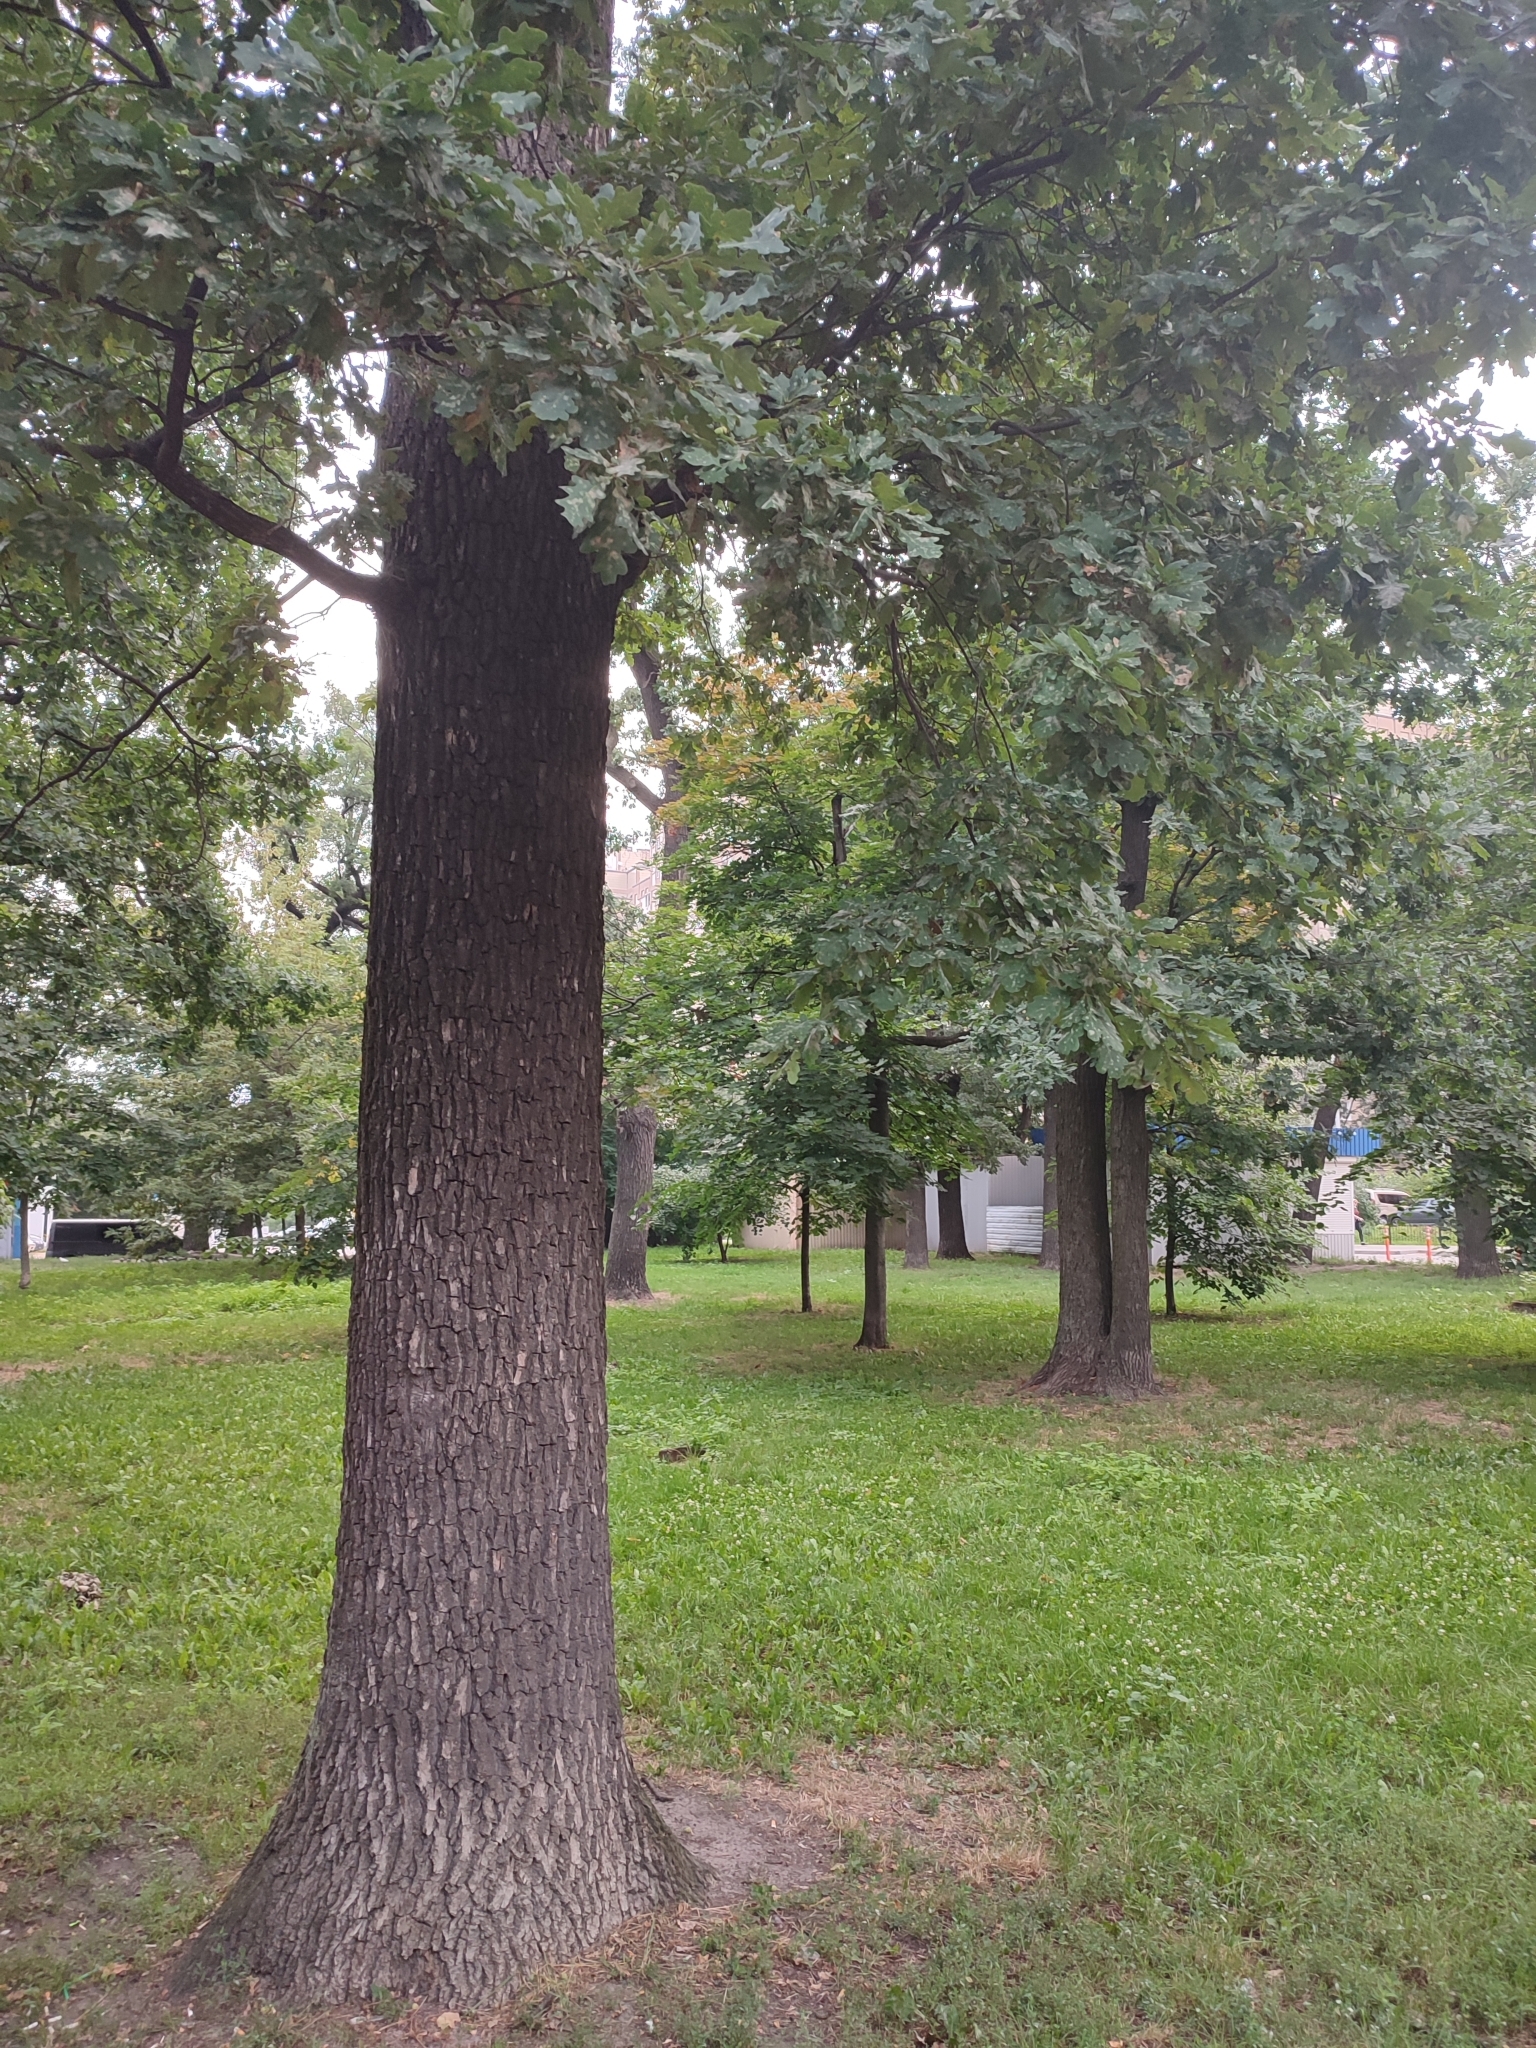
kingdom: Plantae
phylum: Tracheophyta
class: Magnoliopsida
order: Fagales
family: Fagaceae
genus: Quercus
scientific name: Quercus robur
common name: Pedunculate oak
